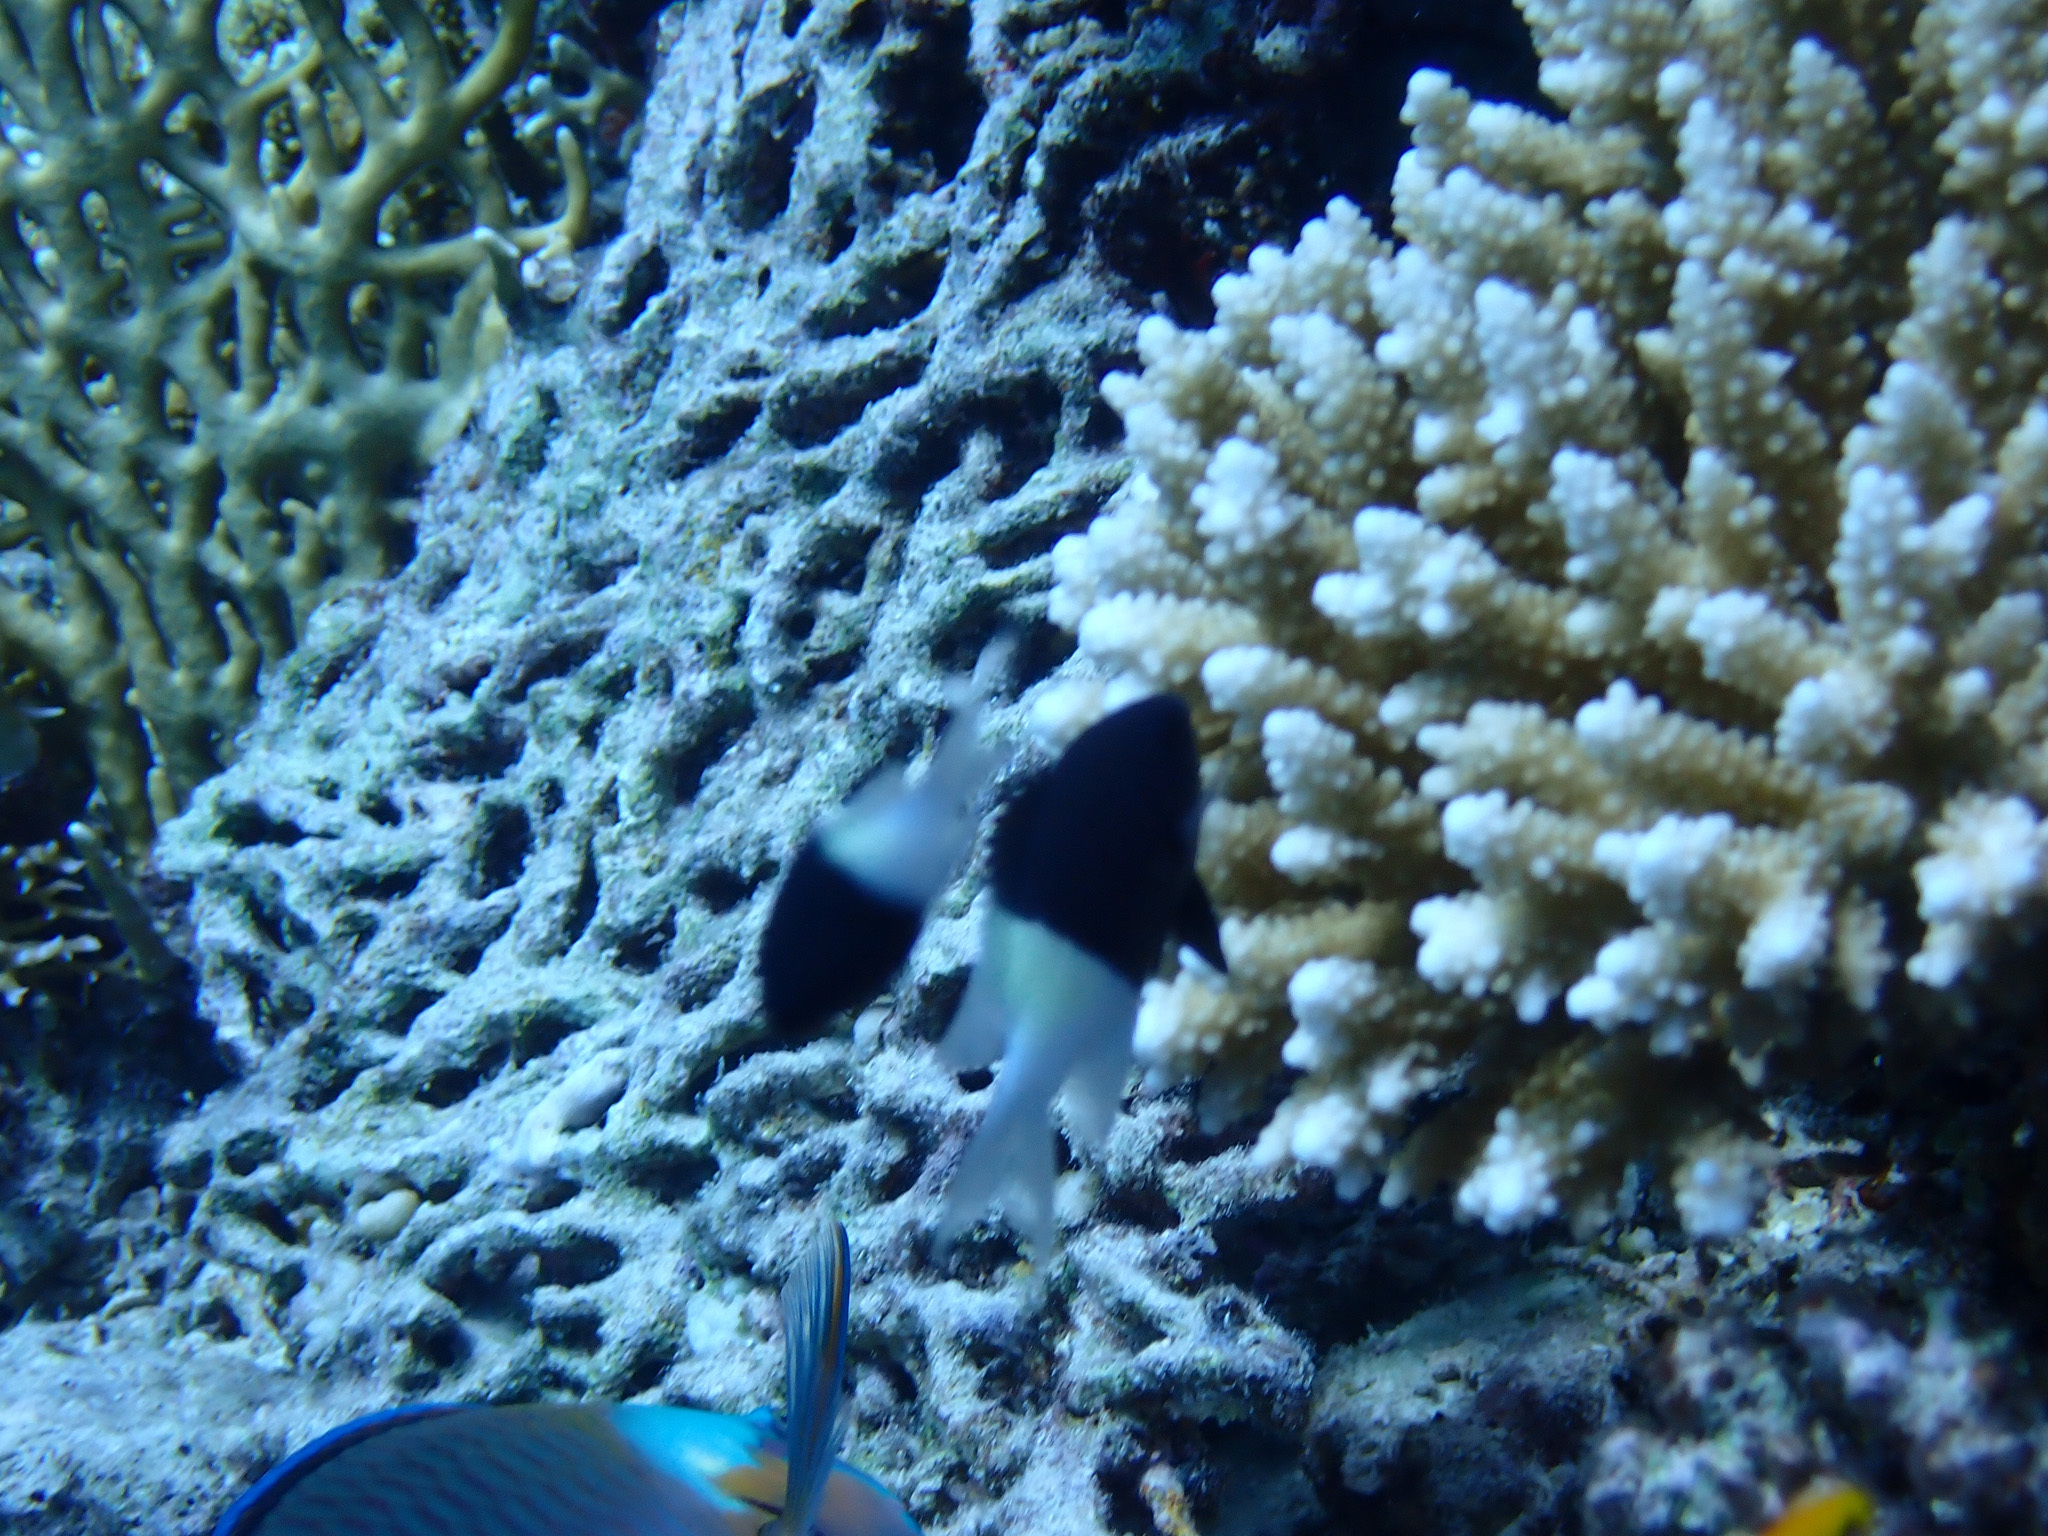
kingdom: Animalia
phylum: Chordata
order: Perciformes
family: Pomacentridae
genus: Chromis
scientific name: Chromis dimidiata
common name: Half-and-half chromis
